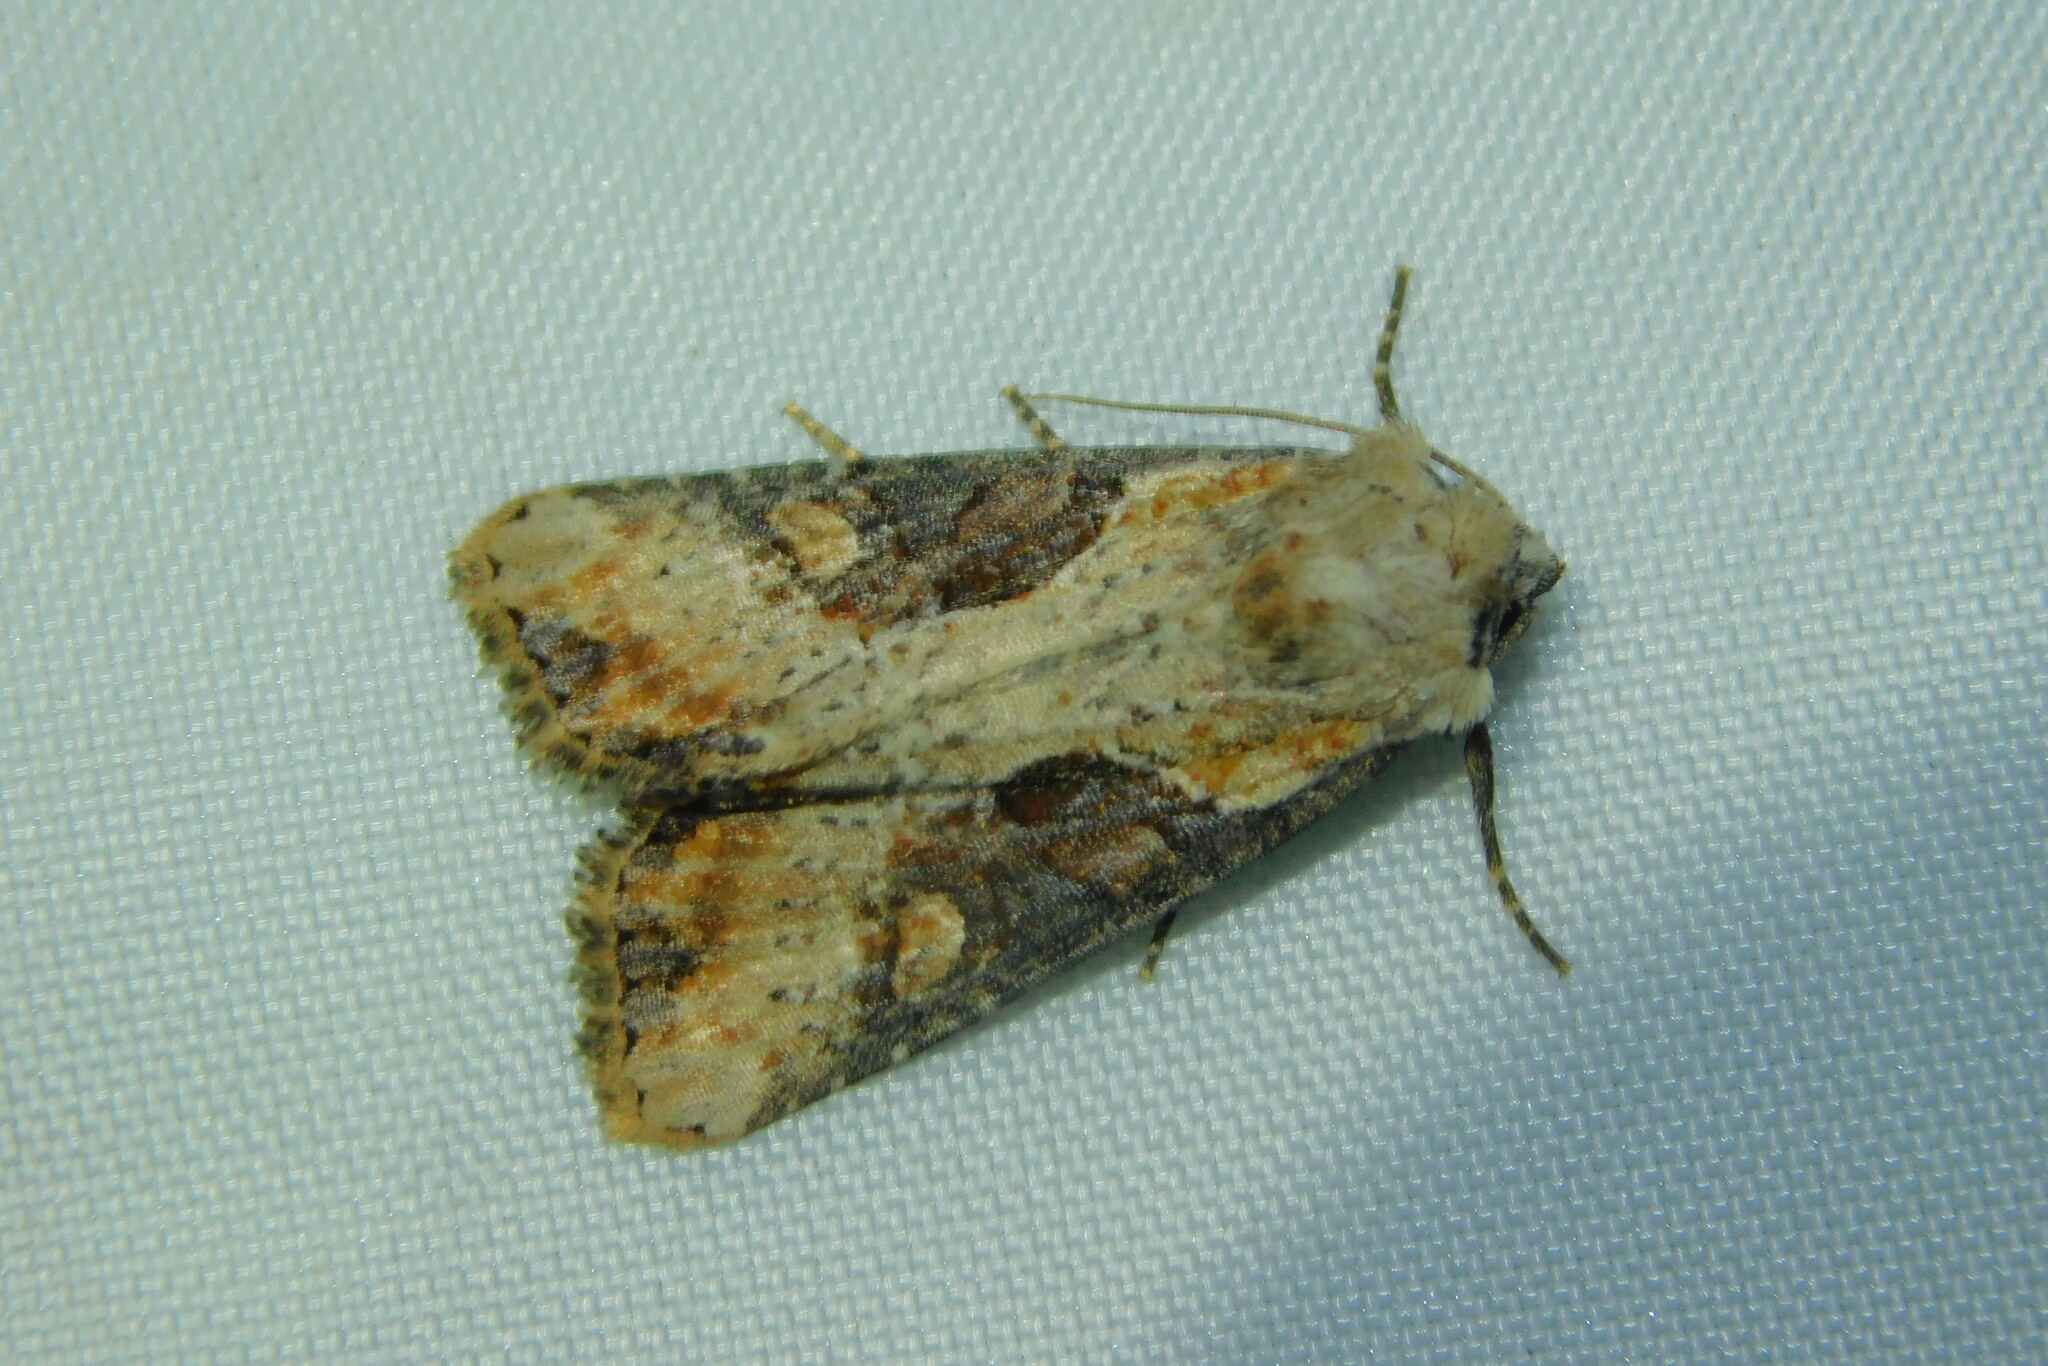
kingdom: Animalia
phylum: Arthropoda
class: Insecta
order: Lepidoptera
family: Noctuidae
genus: Lateroligia
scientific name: Lateroligia ophiogramma
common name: Double lobed
